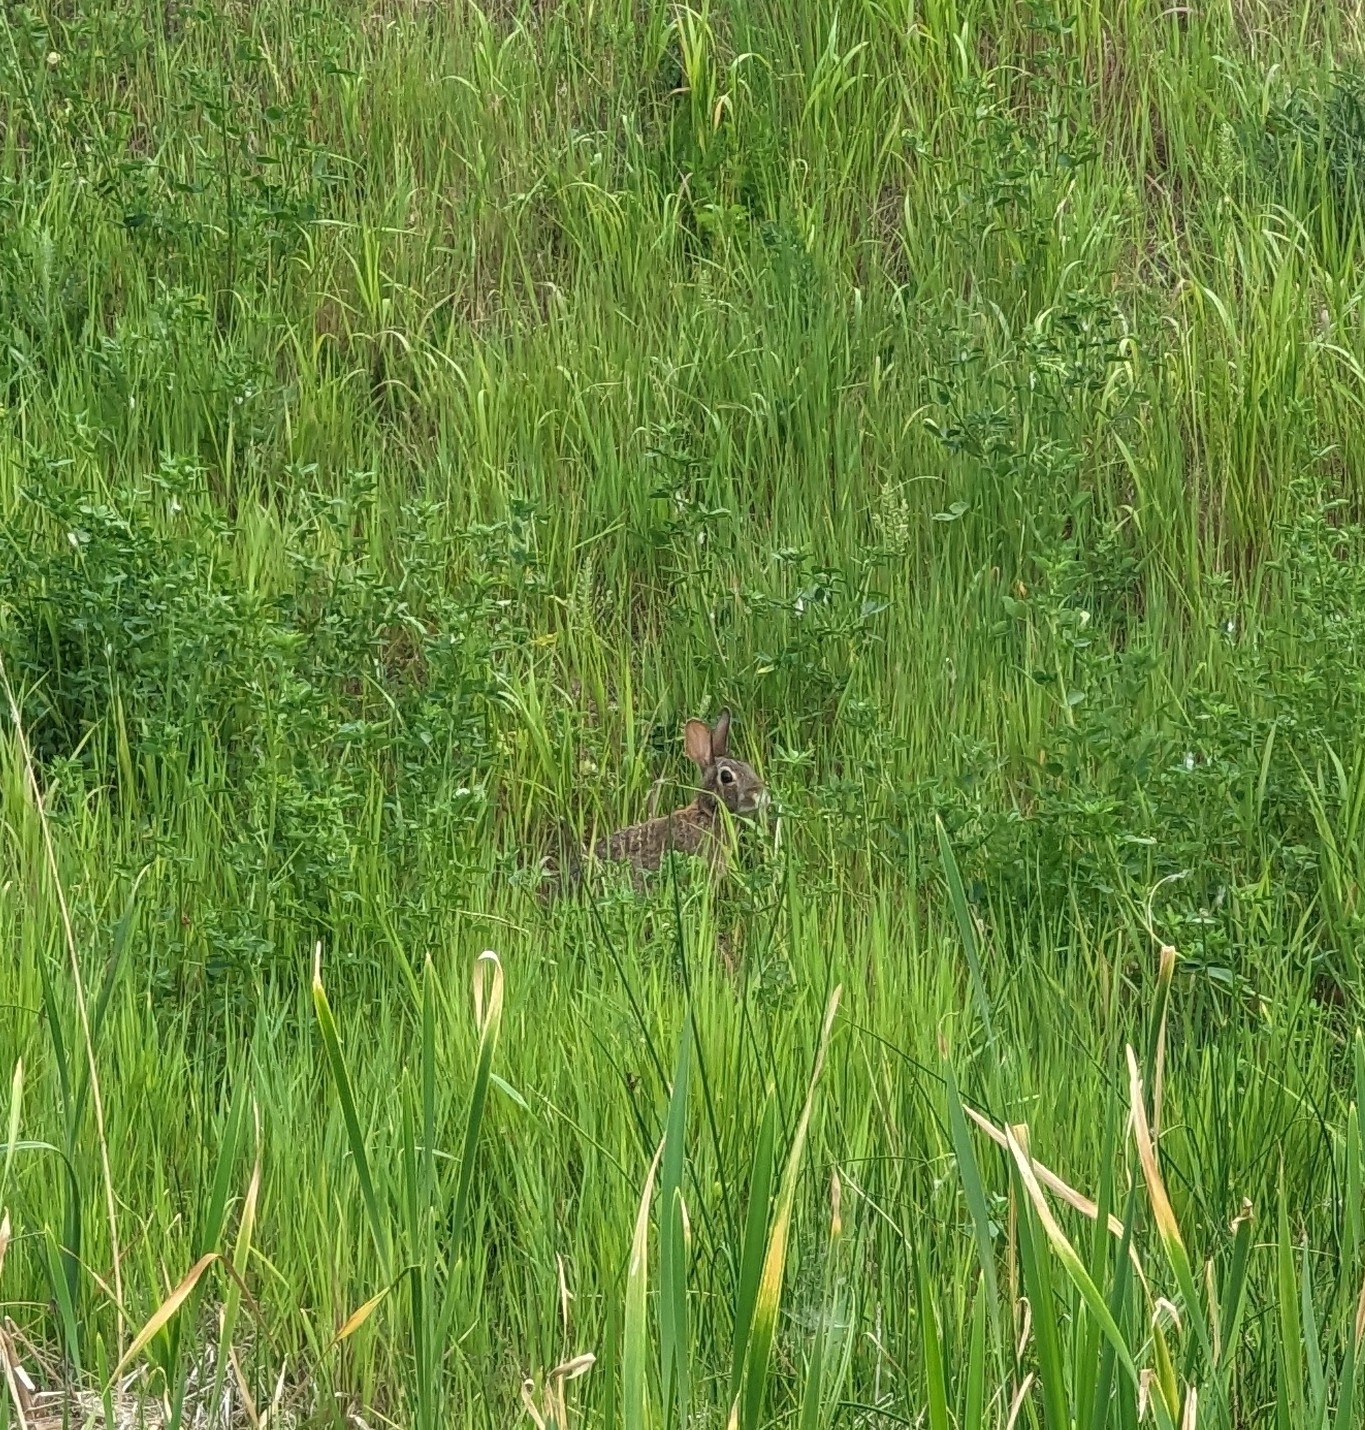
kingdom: Animalia
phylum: Chordata
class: Mammalia
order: Lagomorpha
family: Leporidae
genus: Sylvilagus
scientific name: Sylvilagus floridanus
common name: Eastern cottontail
